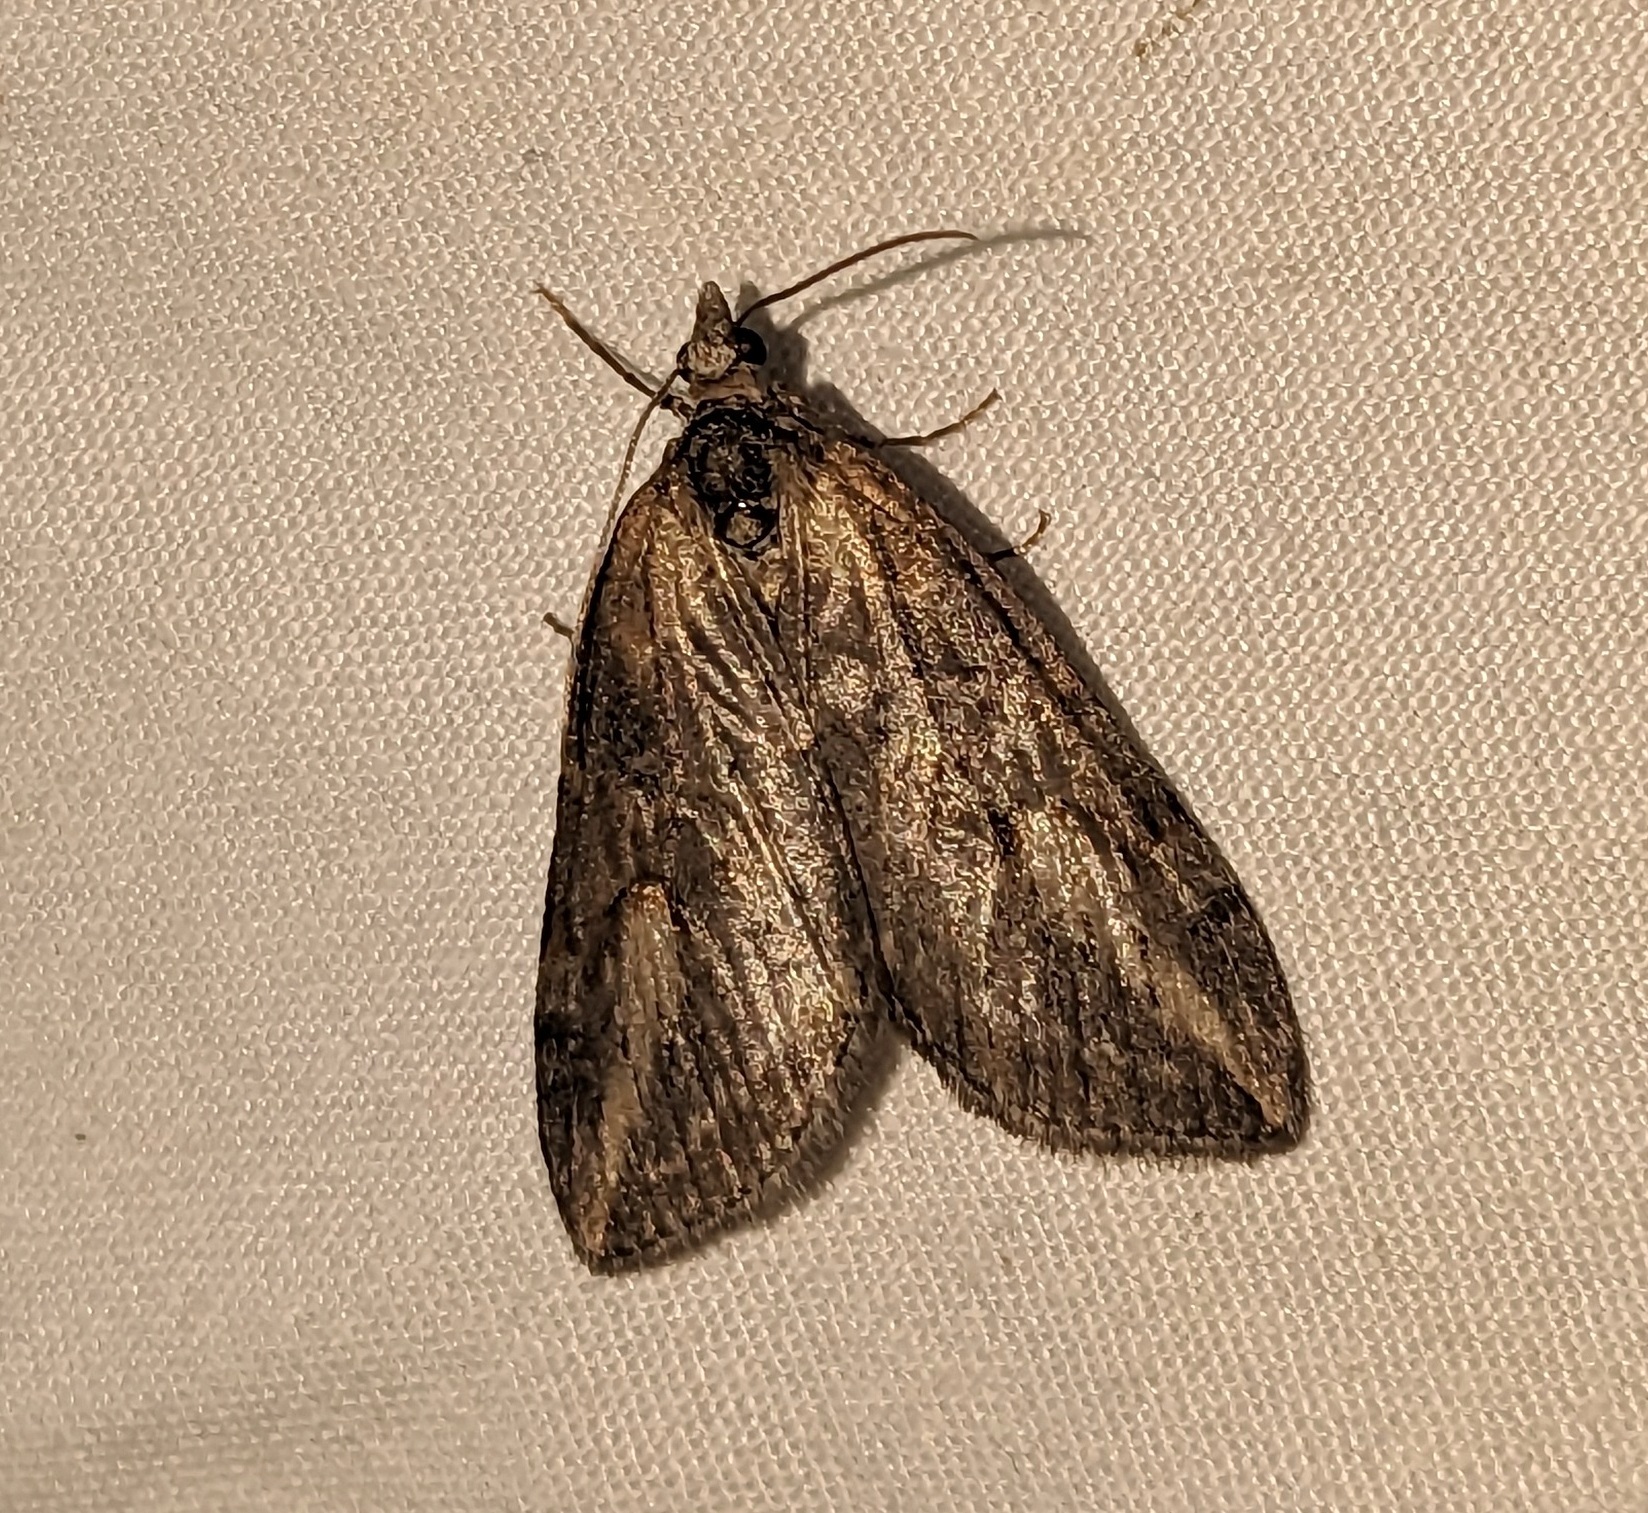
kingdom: Animalia
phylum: Arthropoda
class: Insecta
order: Lepidoptera
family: Geometridae
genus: Chesias
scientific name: Chesias legatella
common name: Streak
